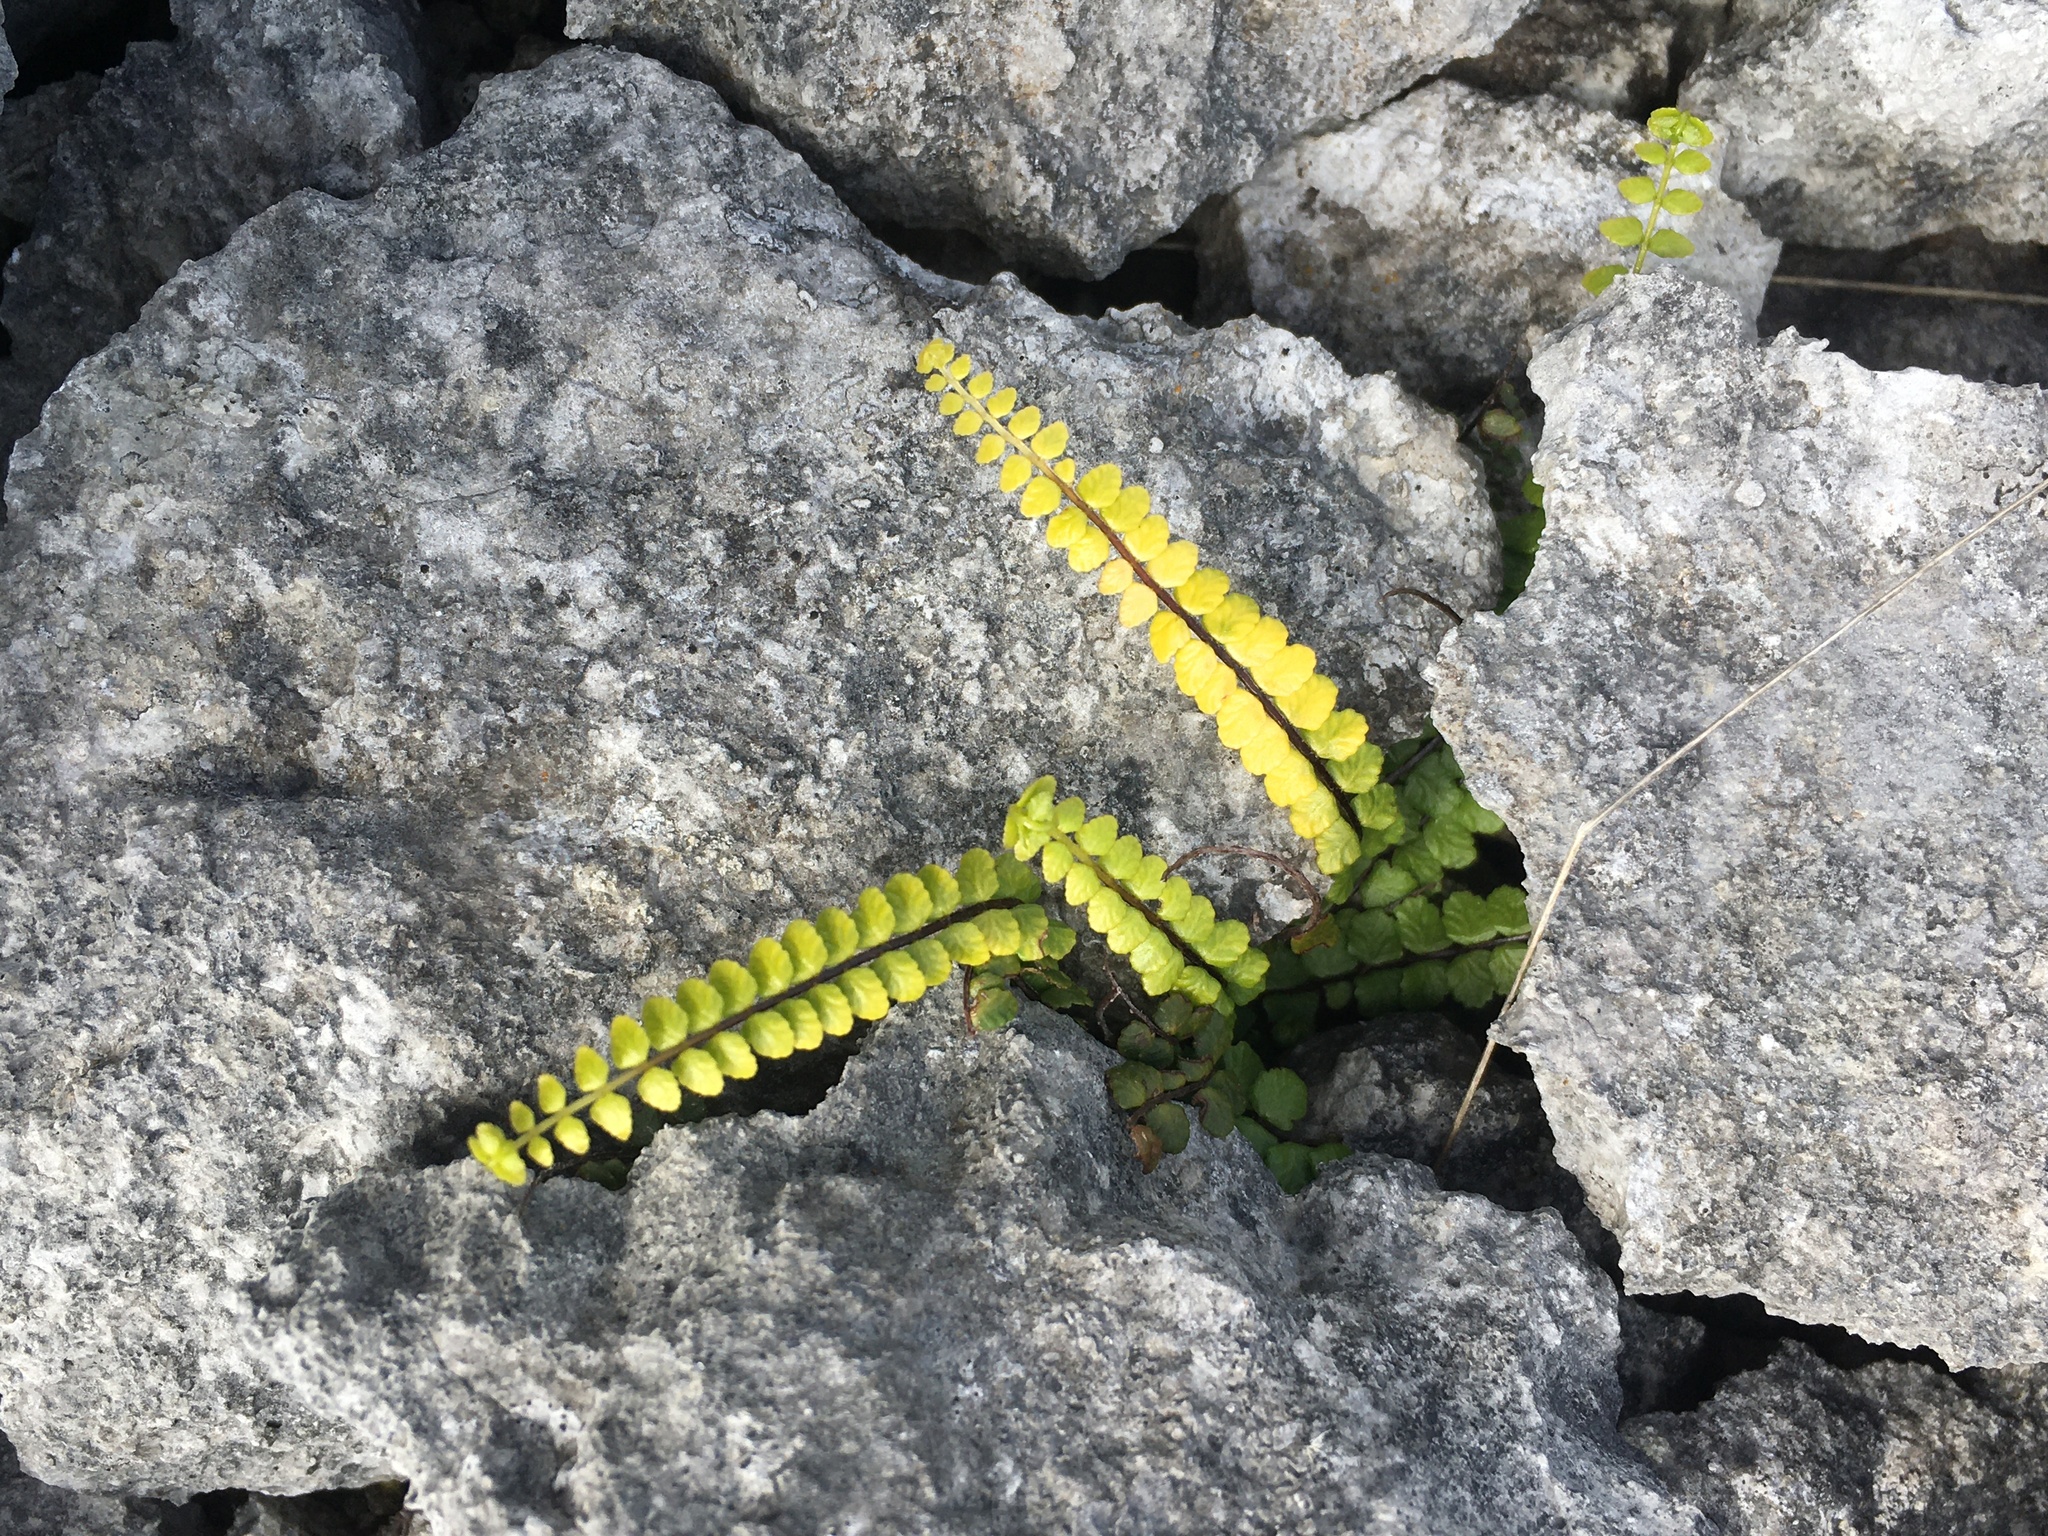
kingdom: Plantae
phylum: Tracheophyta
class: Polypodiopsida
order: Polypodiales
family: Aspleniaceae
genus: Asplenium
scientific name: Asplenium trichomanes
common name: Maidenhair spleenwort
